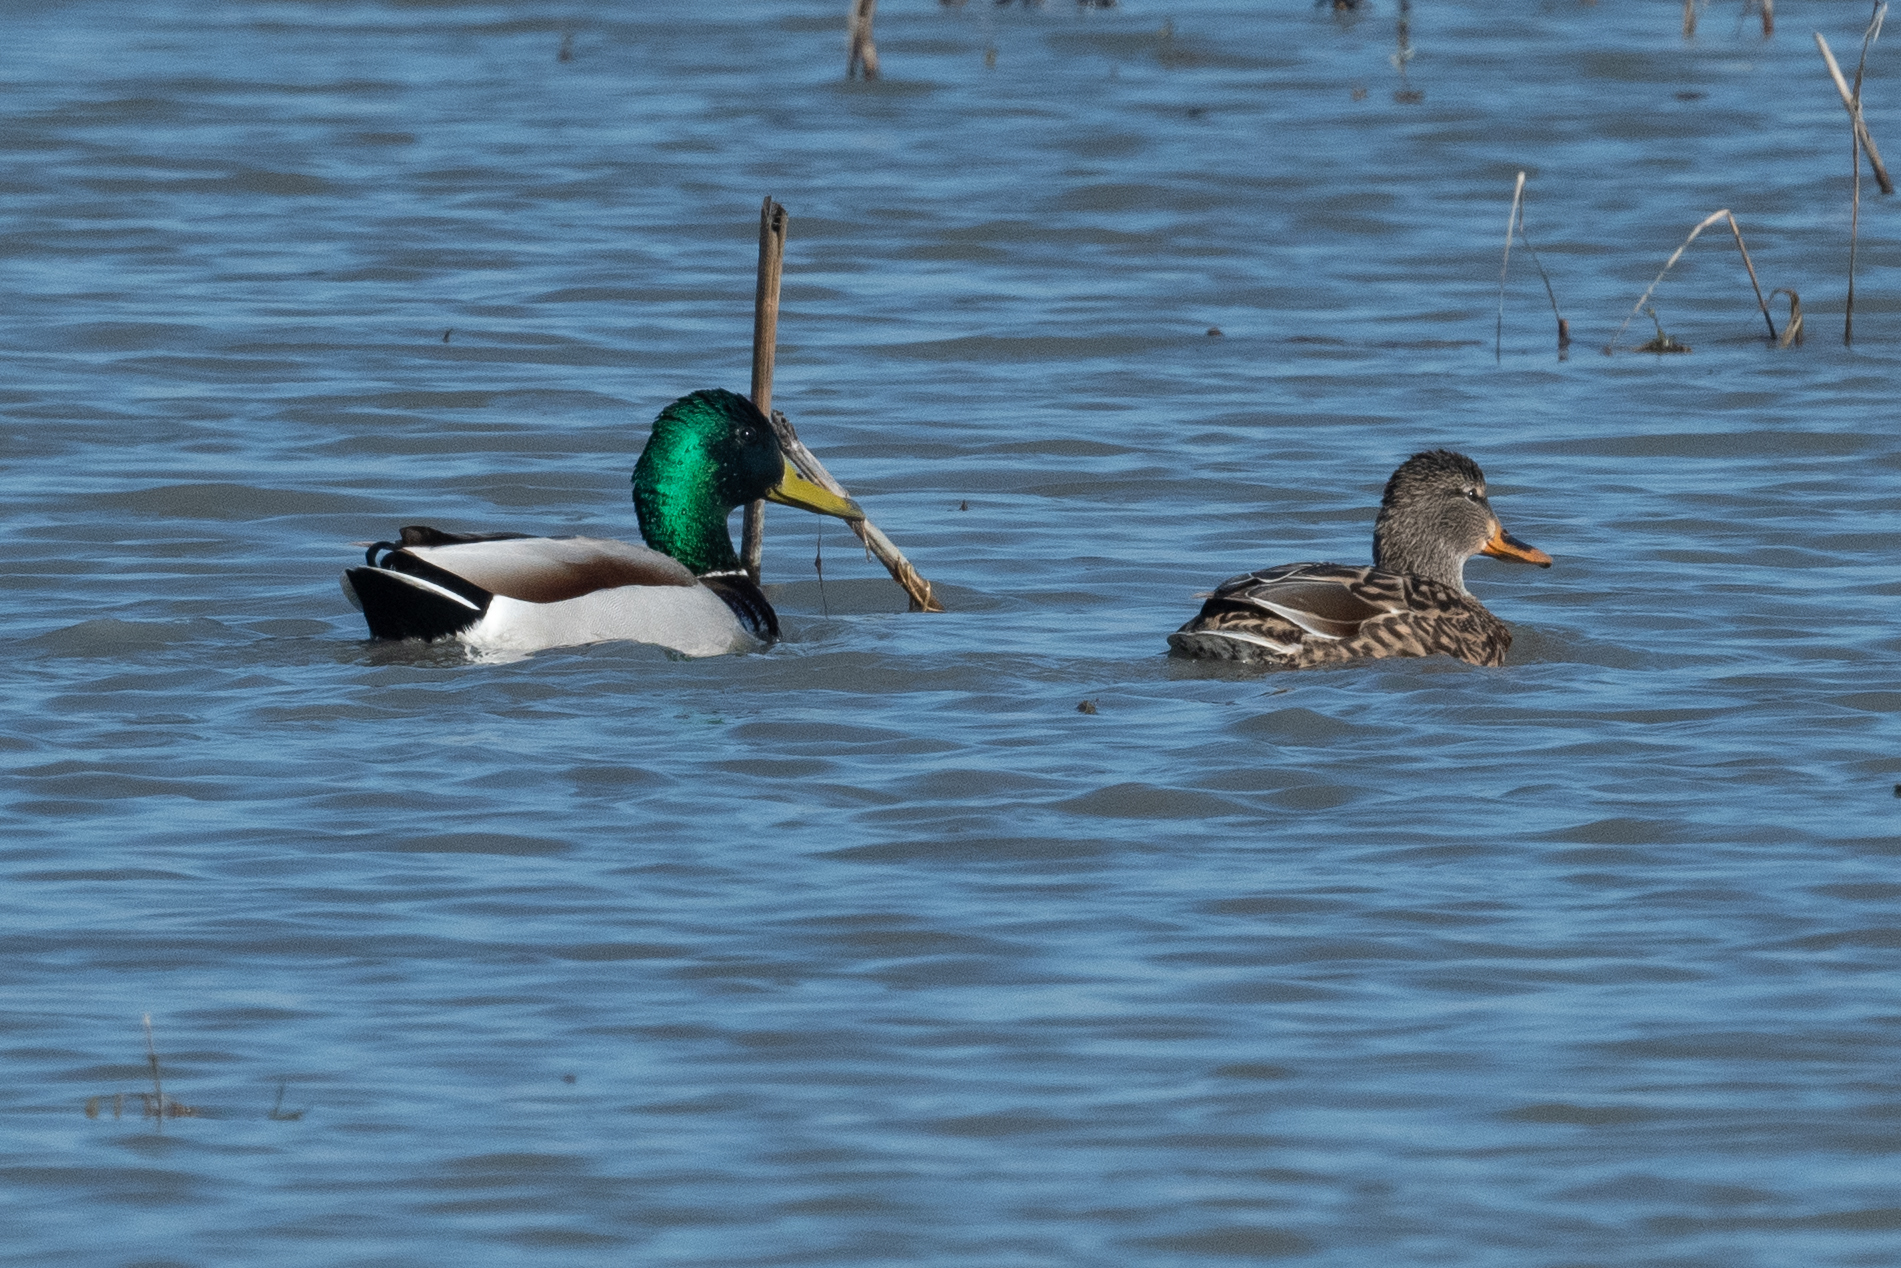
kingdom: Animalia
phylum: Chordata
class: Aves
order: Anseriformes
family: Anatidae
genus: Anas
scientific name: Anas platyrhynchos
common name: Mallard
